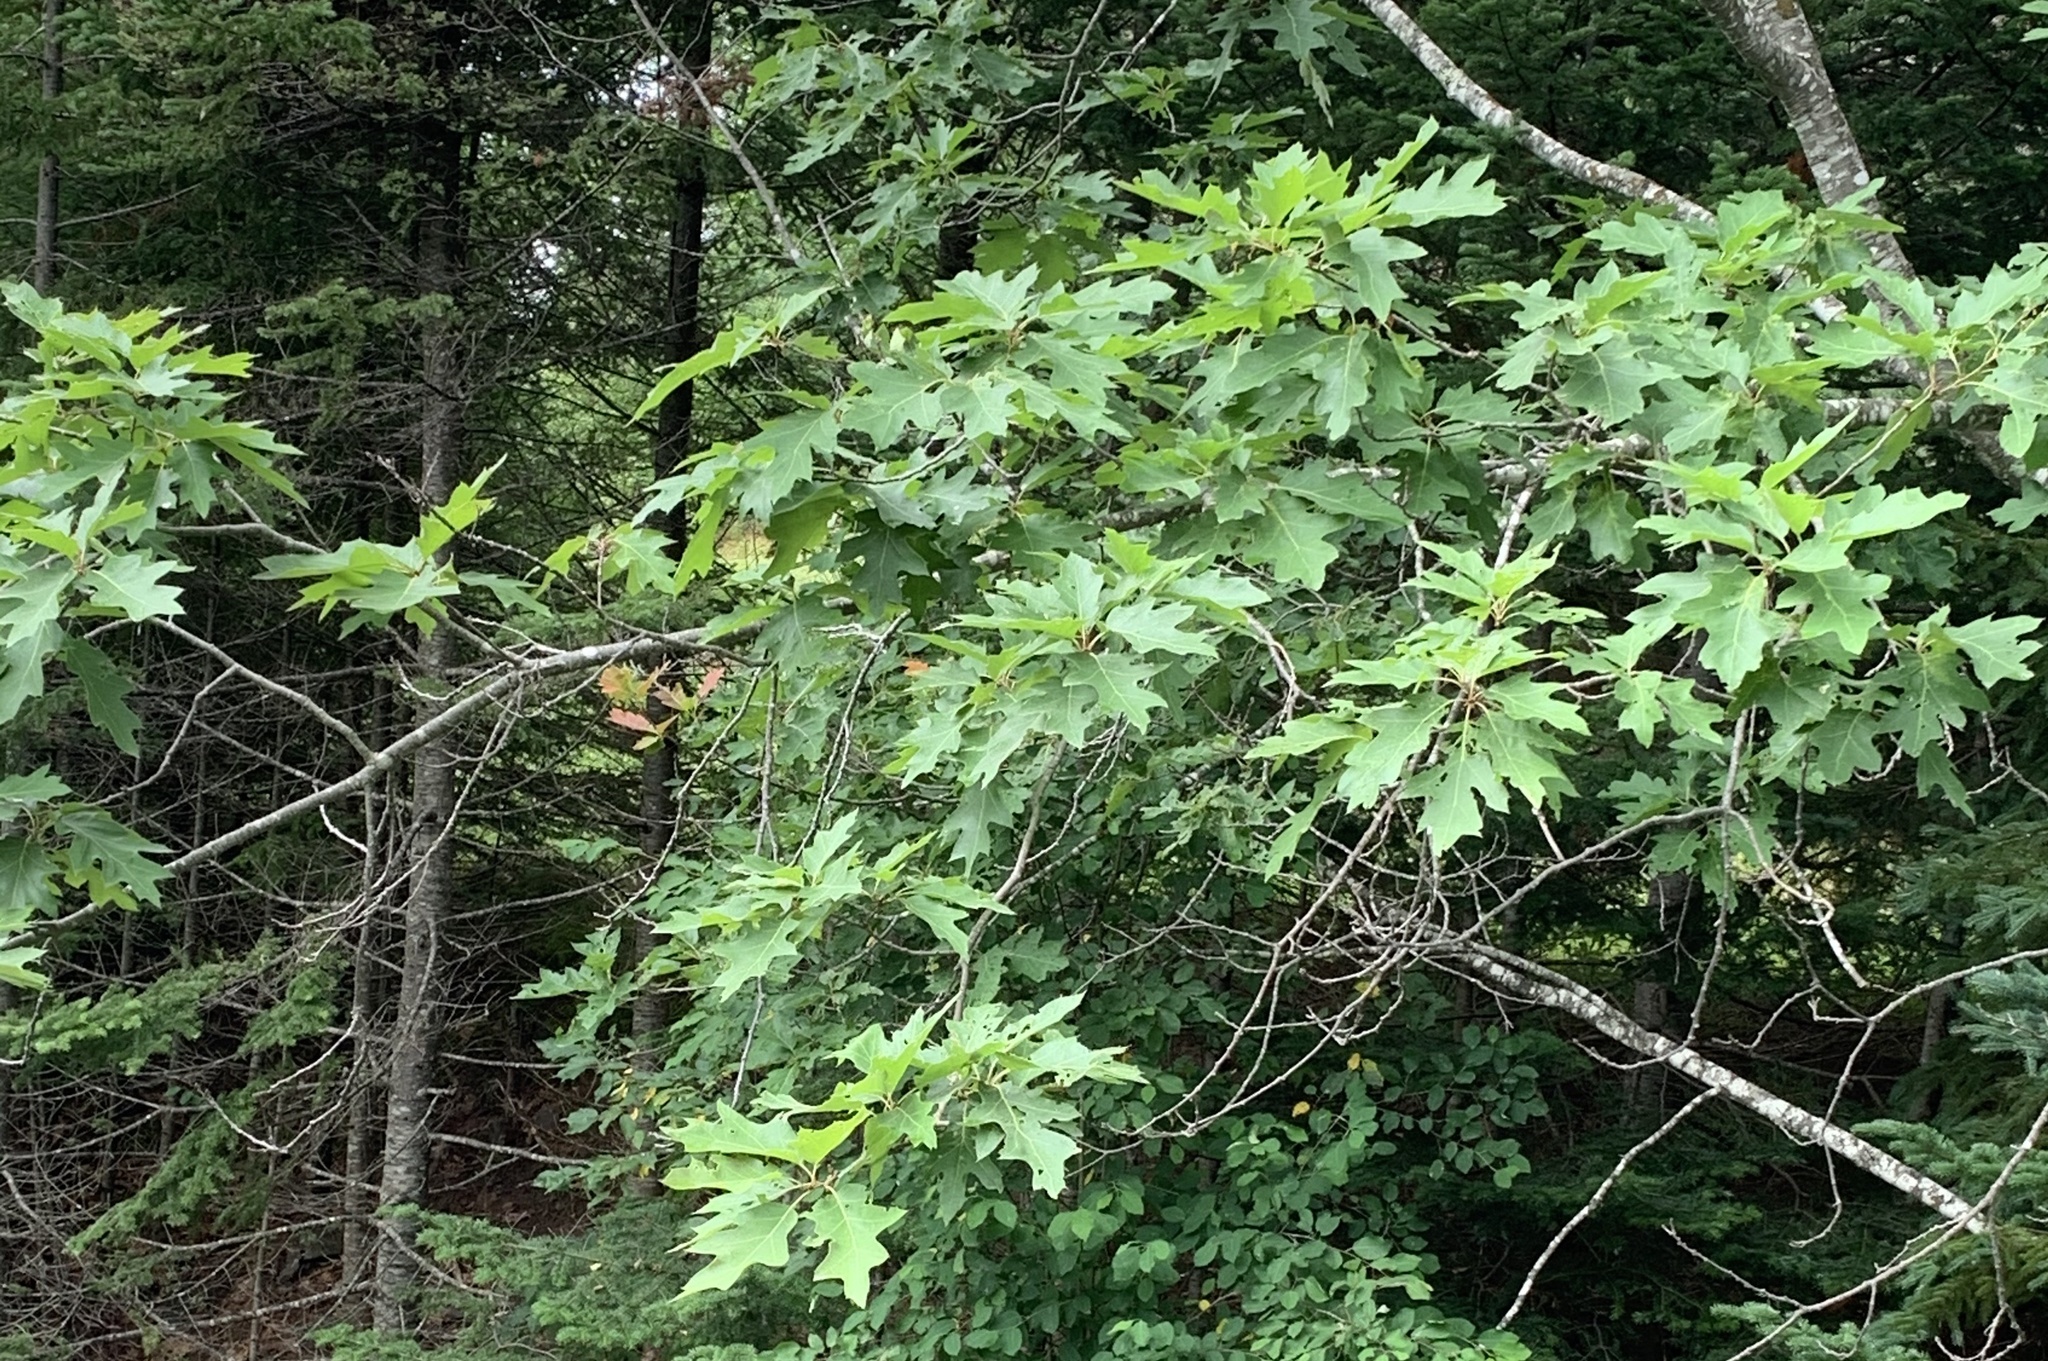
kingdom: Plantae
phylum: Tracheophyta
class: Magnoliopsida
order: Fagales
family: Fagaceae
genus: Quercus
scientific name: Quercus rubra
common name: Red oak
